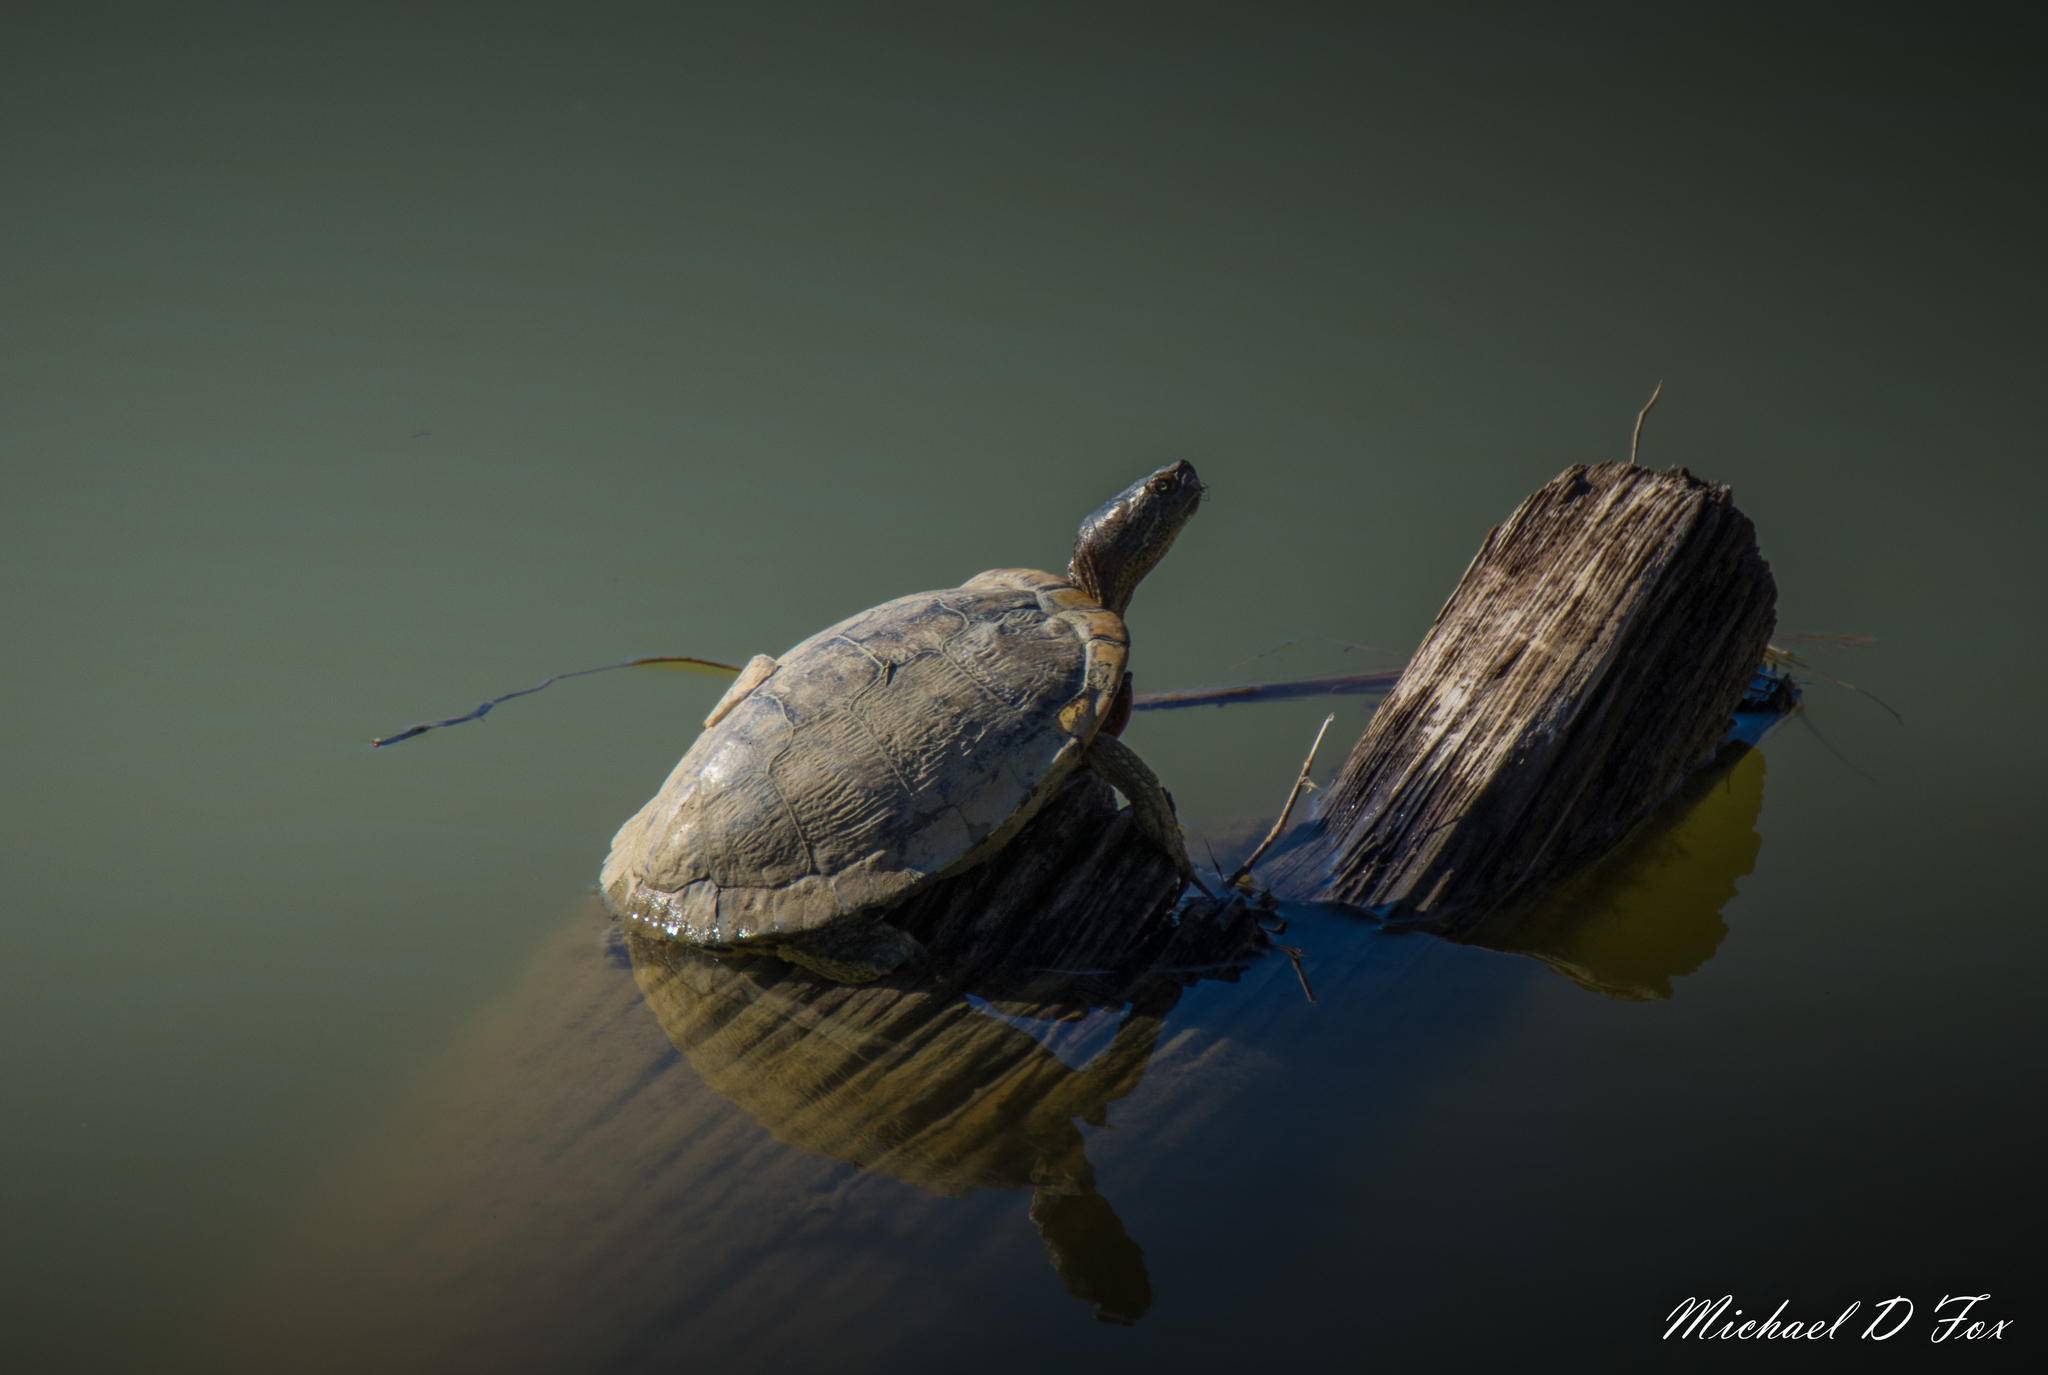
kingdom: Animalia
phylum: Chordata
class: Testudines
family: Emydidae
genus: Trachemys
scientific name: Trachemys scripta
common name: Slider
